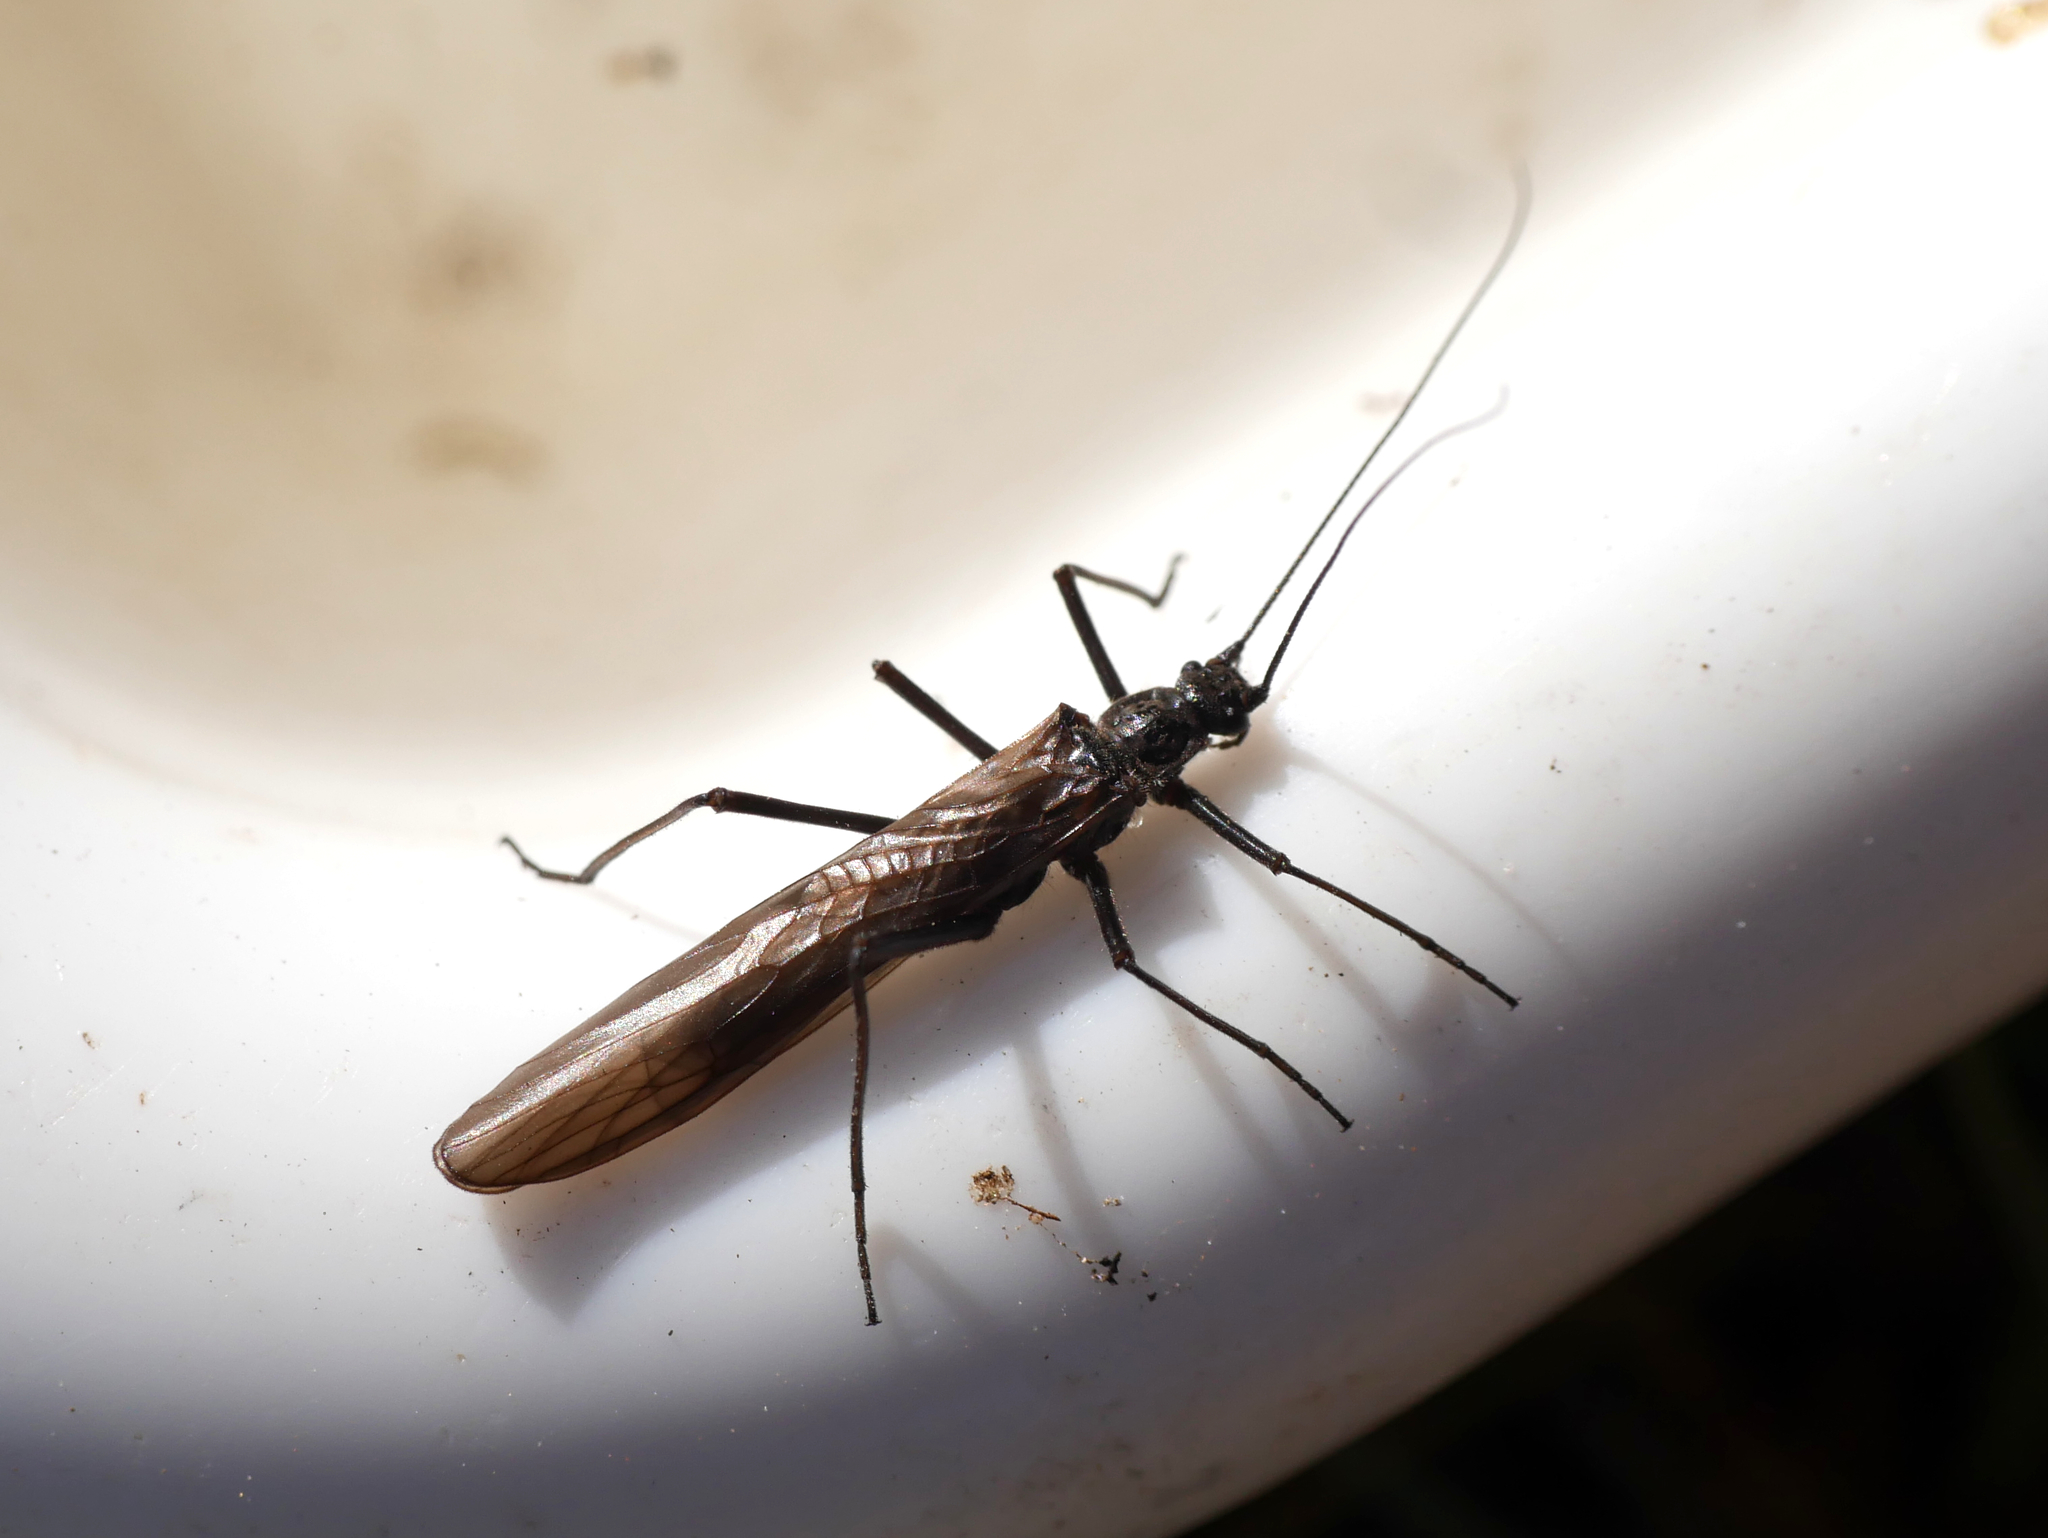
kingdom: Animalia
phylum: Arthropoda
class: Insecta
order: Plecoptera
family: Taeniopterygidae
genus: Taeniopteryx
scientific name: Taeniopteryx nebulosa
